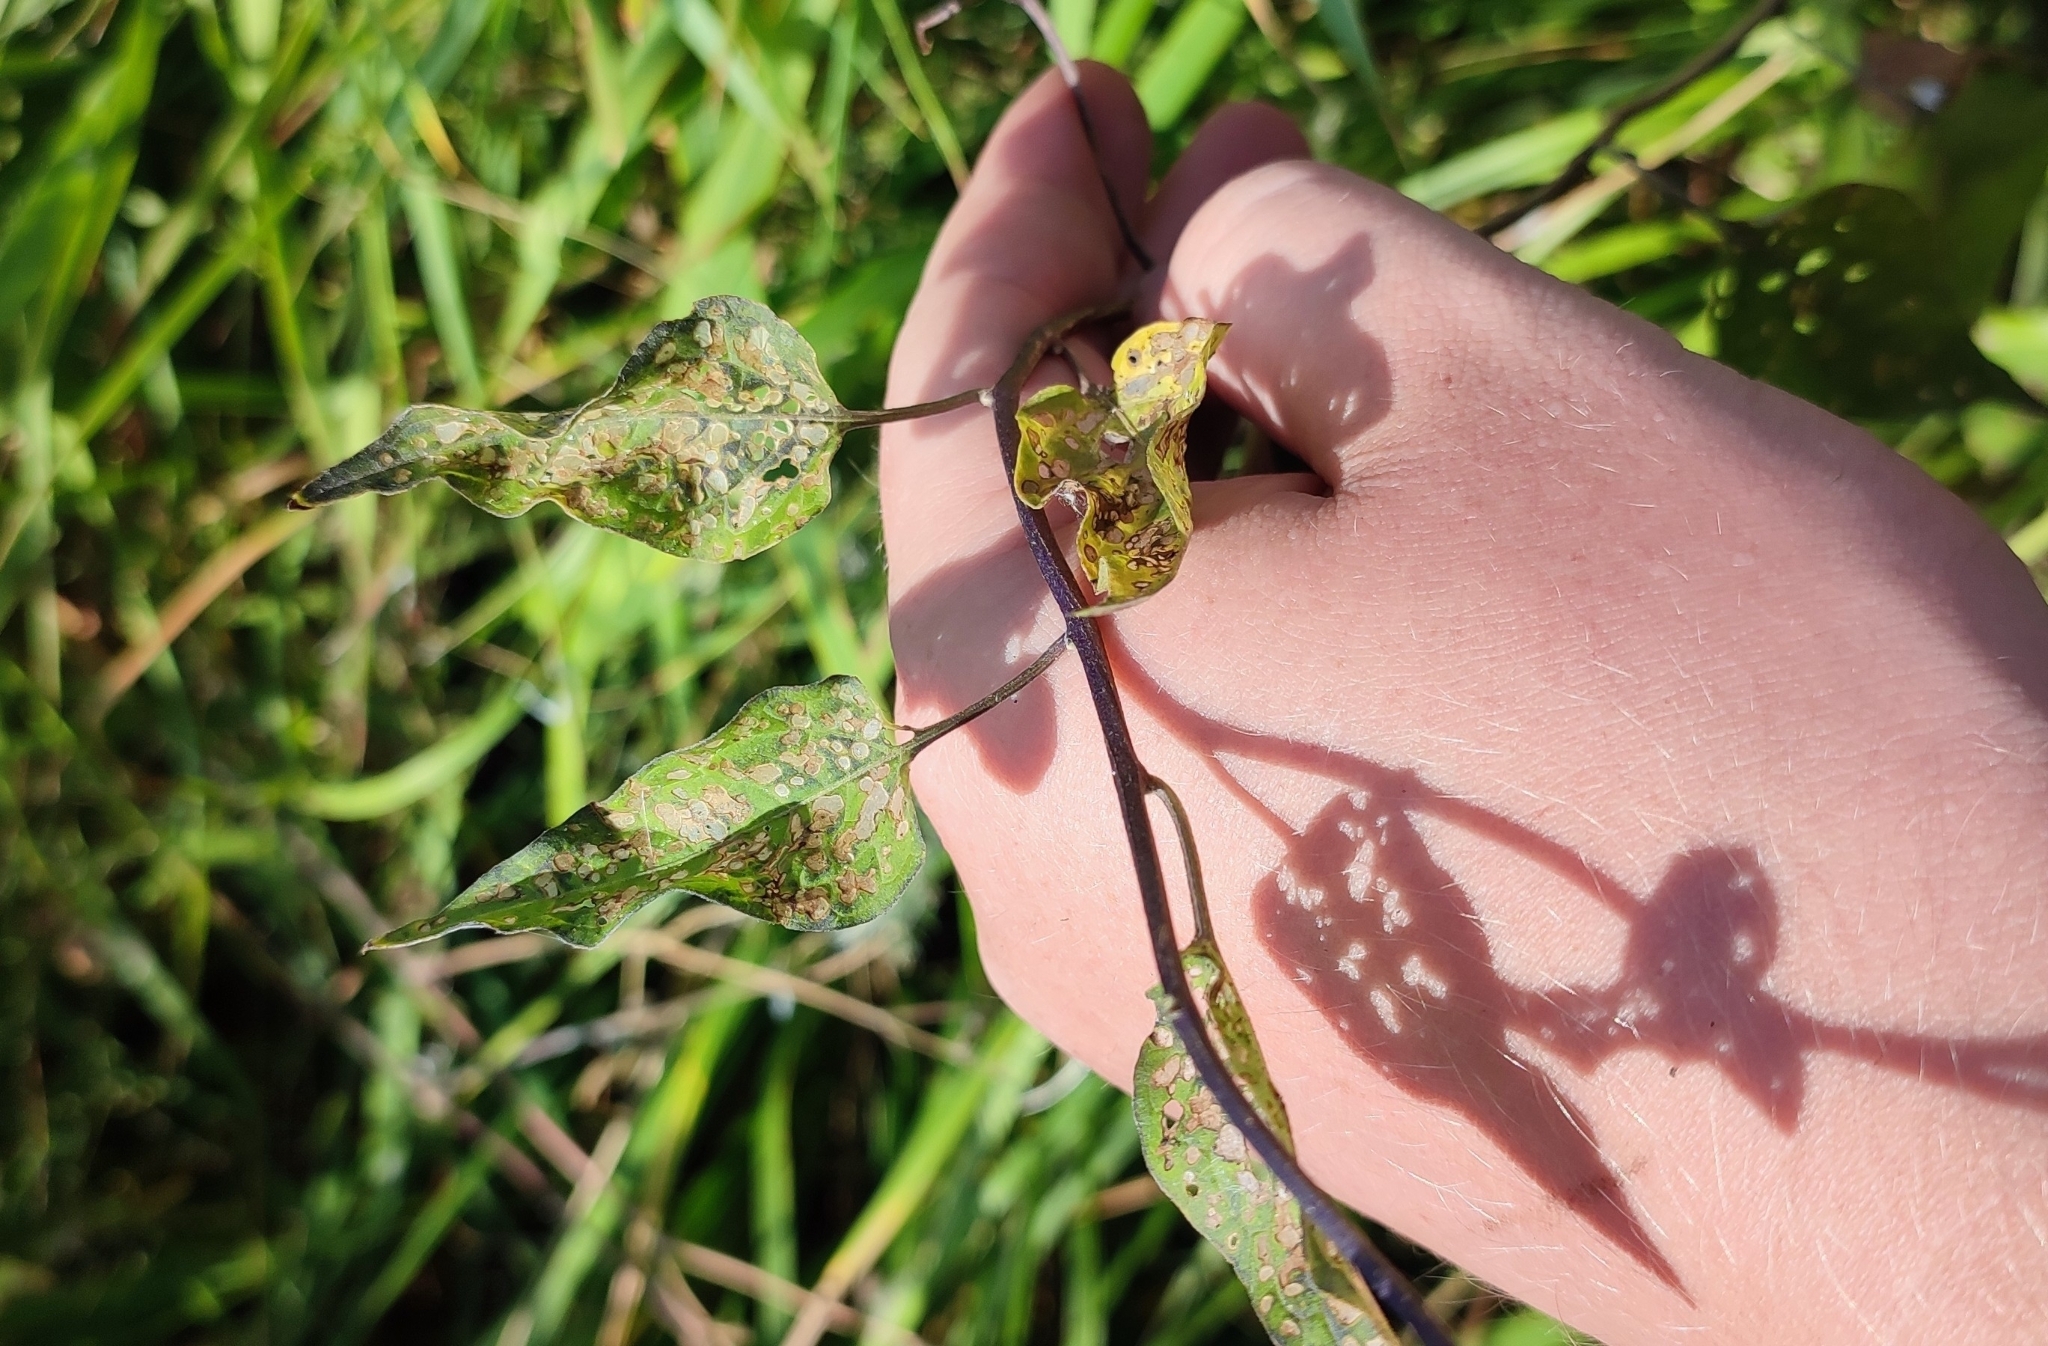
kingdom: Plantae
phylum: Tracheophyta
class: Magnoliopsida
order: Solanales
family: Solanaceae
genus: Solanum
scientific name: Solanum dulcamara
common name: Climbing nightshade
